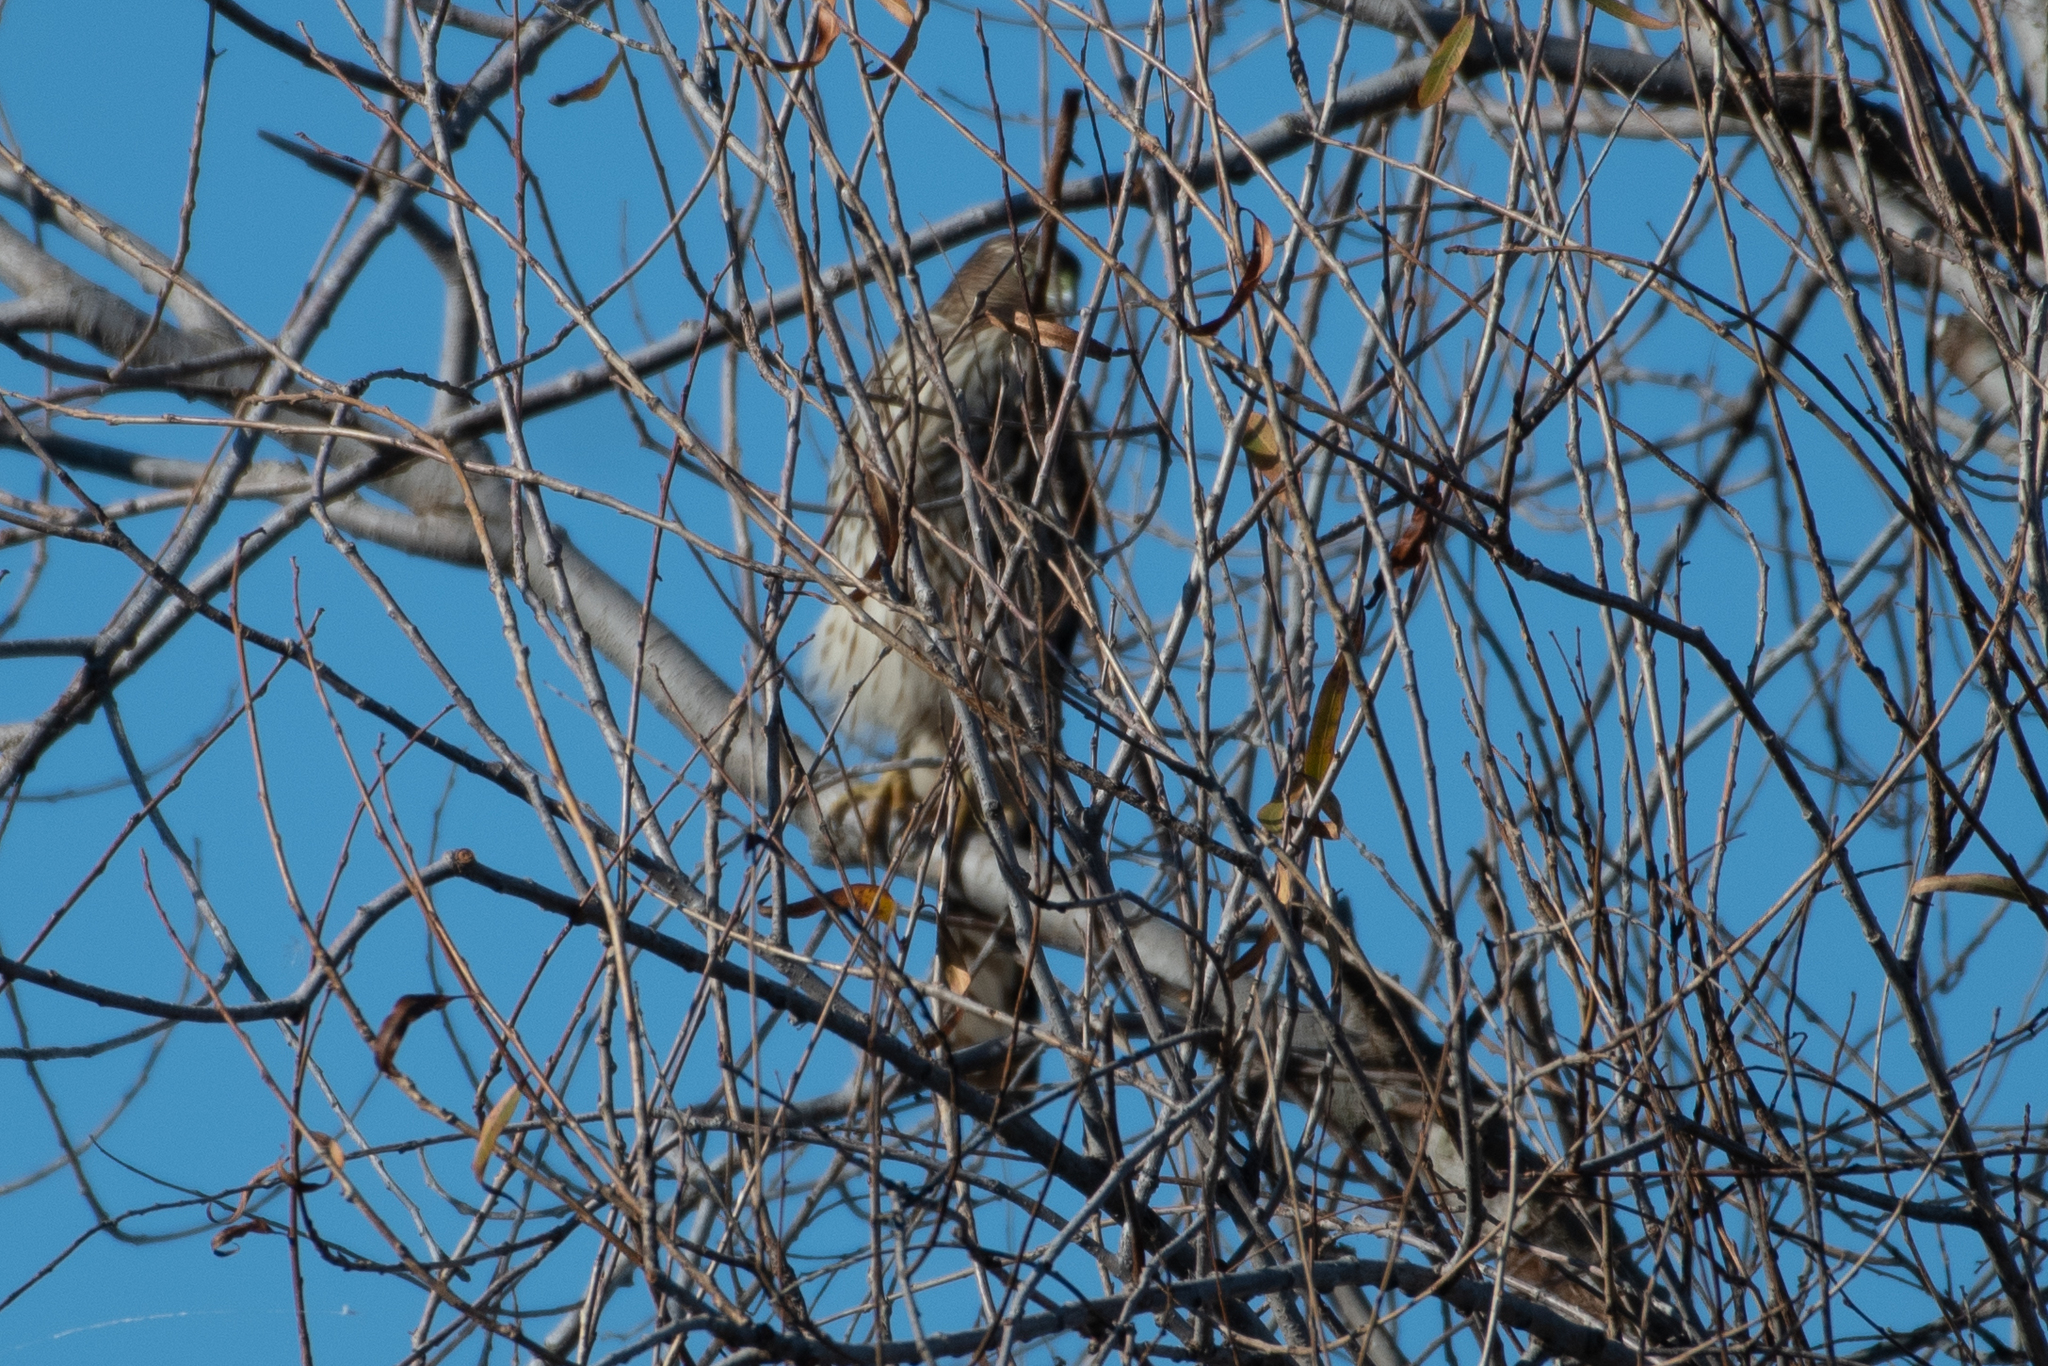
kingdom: Animalia
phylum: Chordata
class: Aves
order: Accipitriformes
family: Accipitridae
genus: Accipiter
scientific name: Accipiter cooperii
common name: Cooper's hawk
